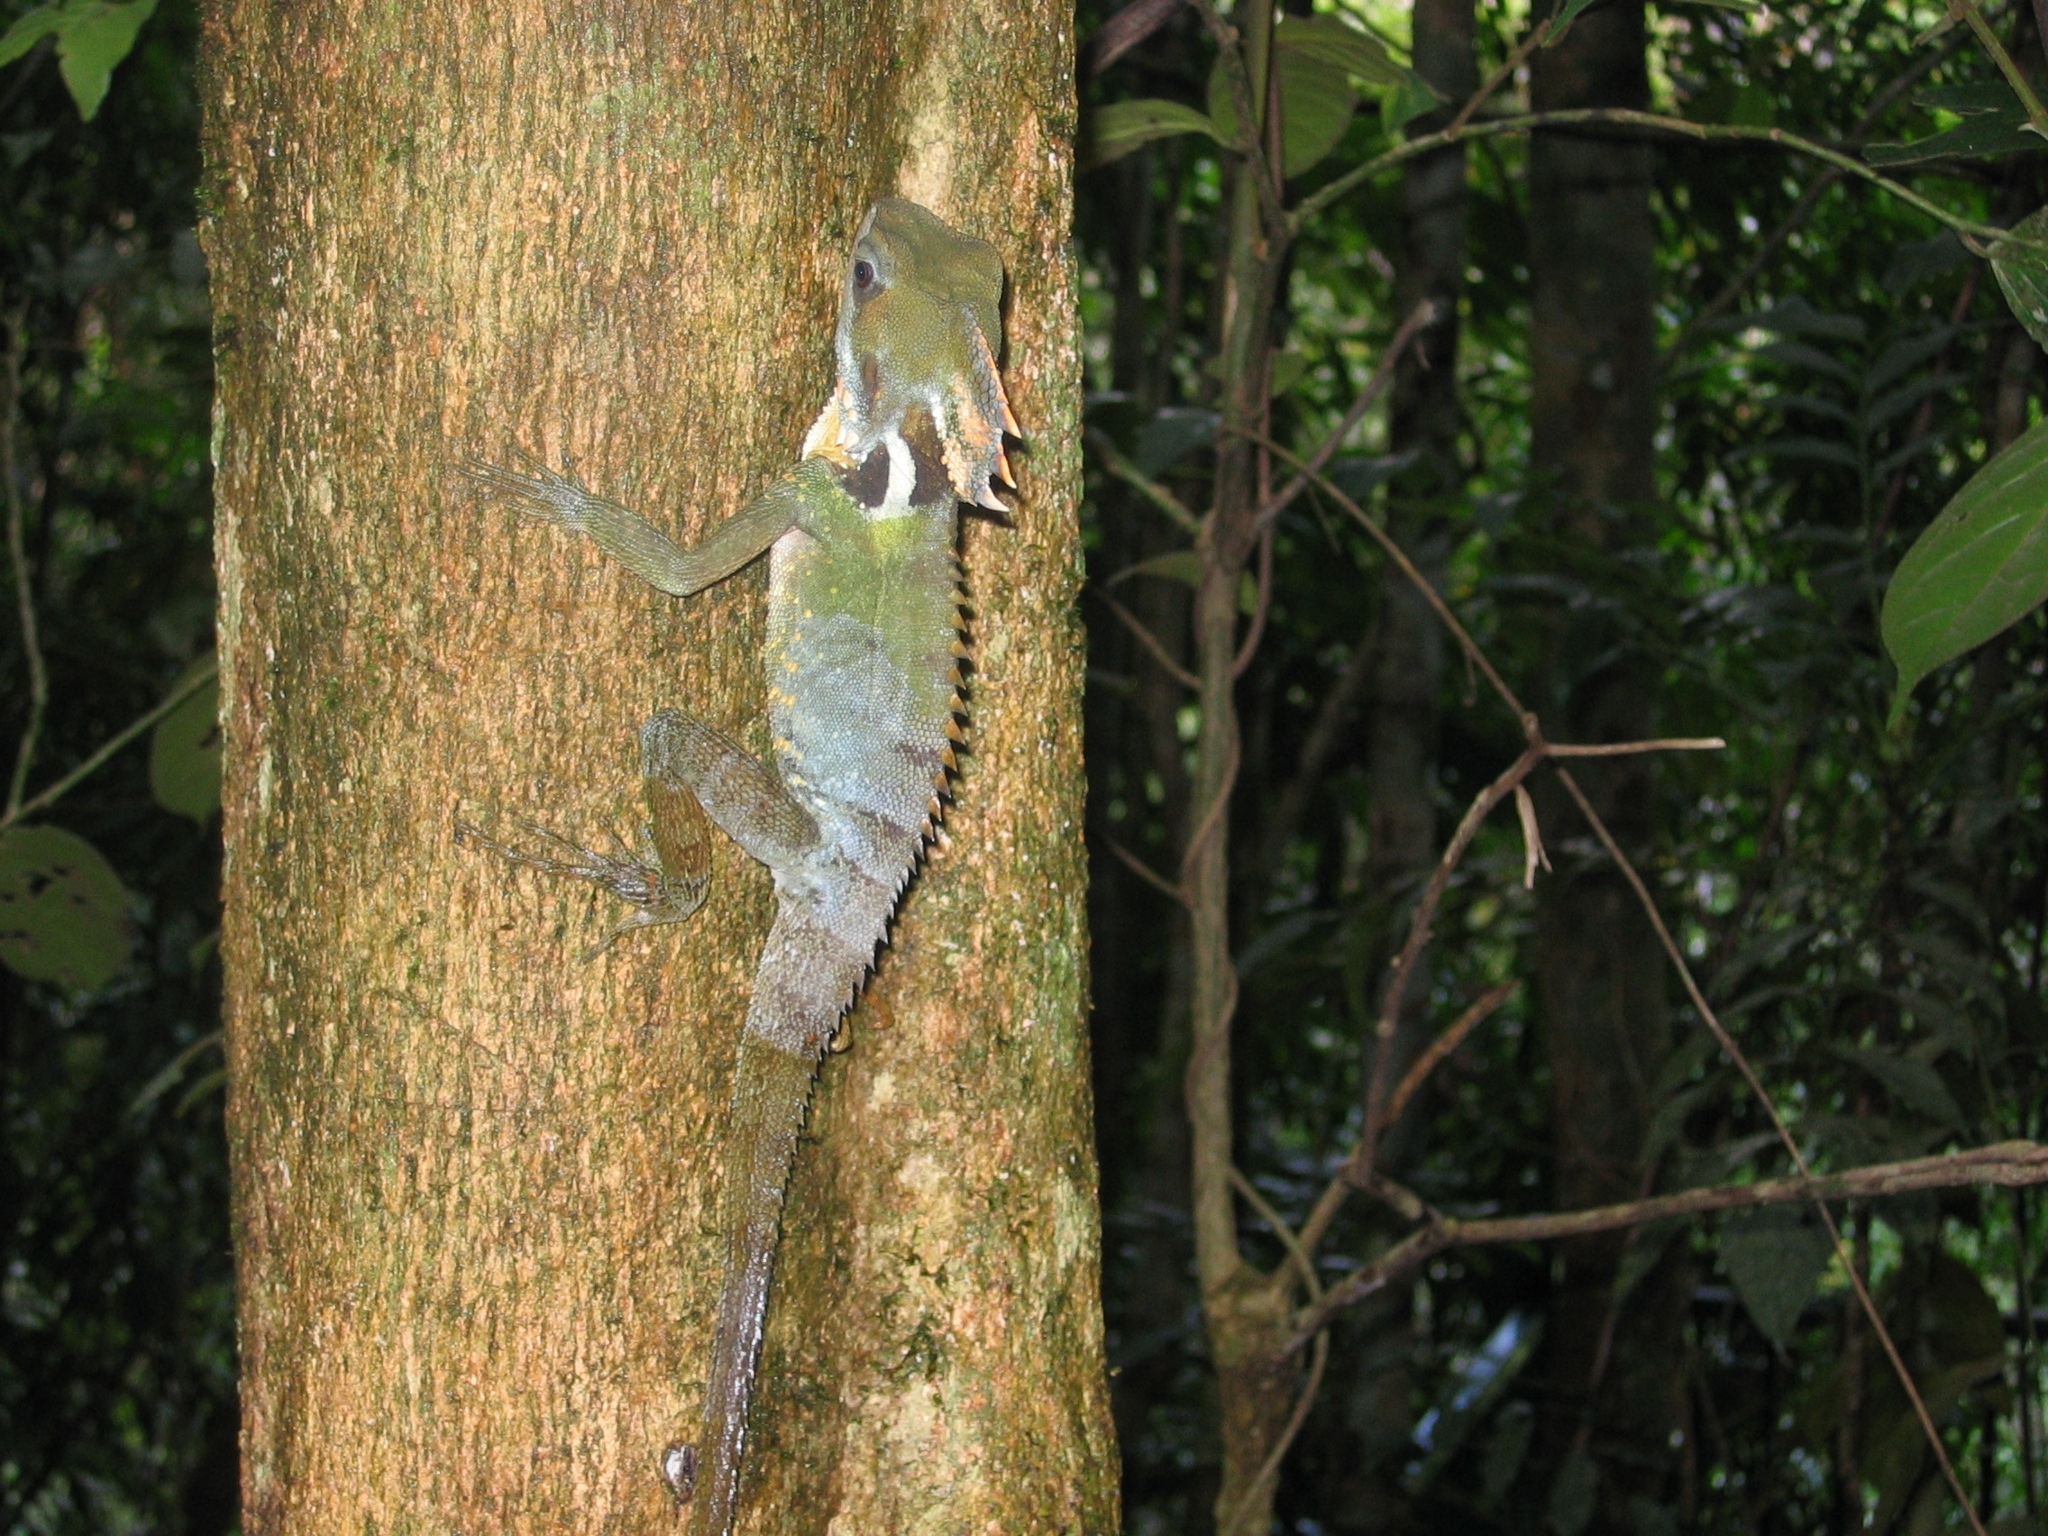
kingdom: Animalia
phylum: Chordata
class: Squamata
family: Agamidae
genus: Lophosaurus
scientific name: Lophosaurus boydii
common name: Boyd's forest dragon
